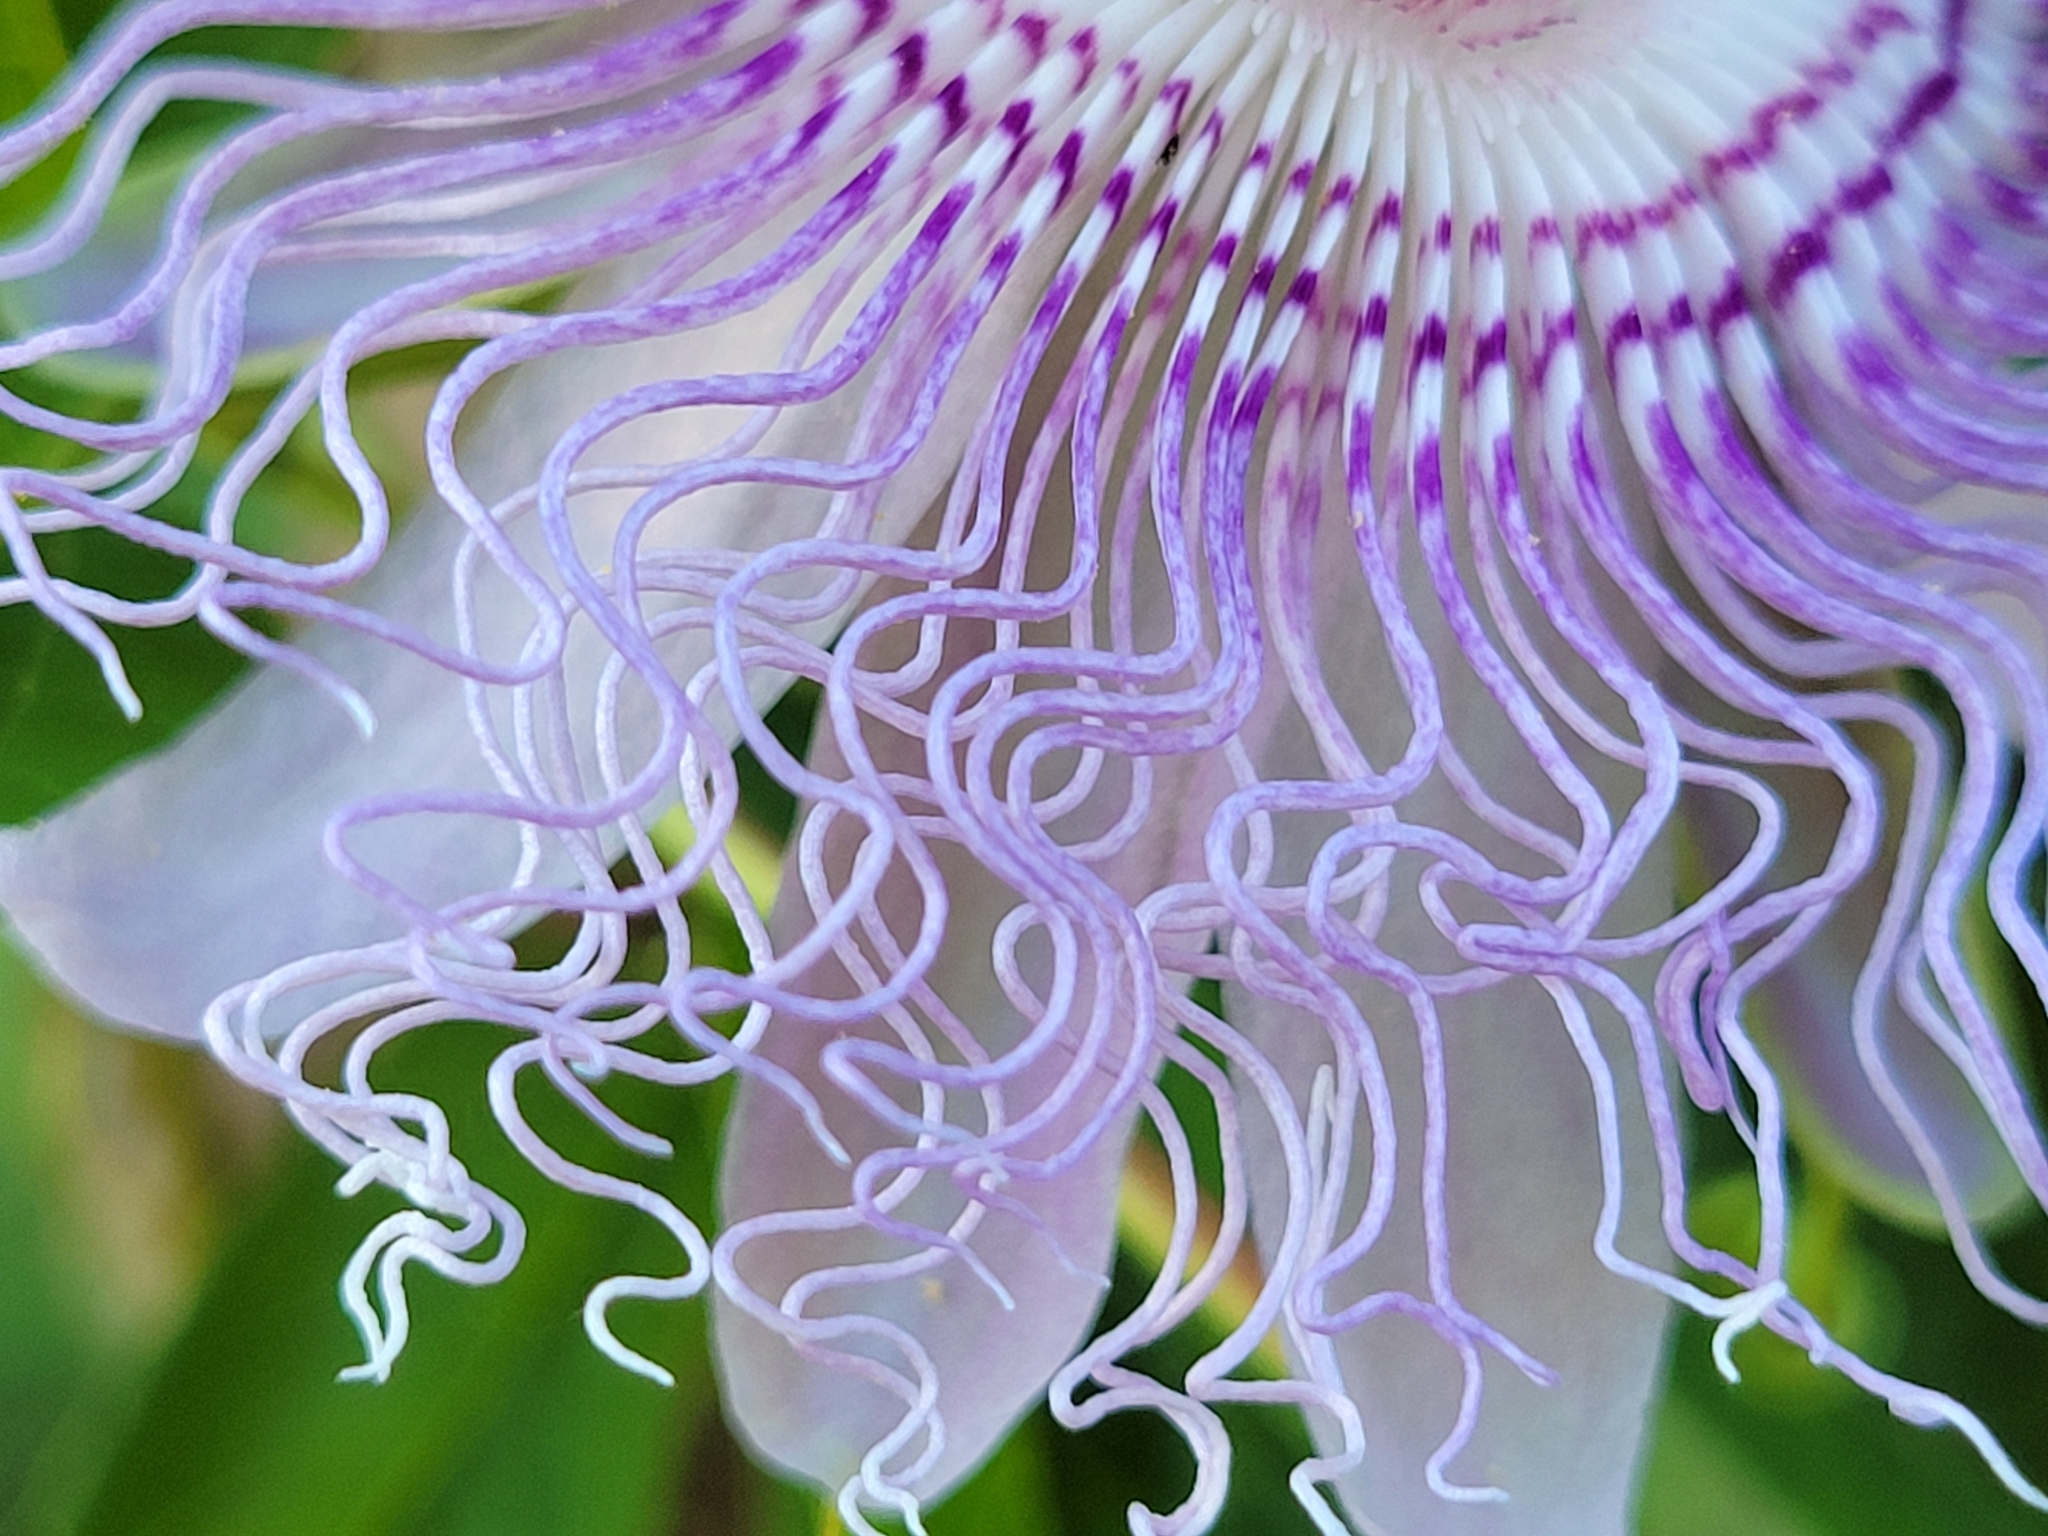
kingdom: Plantae
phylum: Tracheophyta
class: Magnoliopsida
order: Malpighiales
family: Passifloraceae
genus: Passiflora
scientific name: Passiflora incarnata
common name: Apricot-vine
